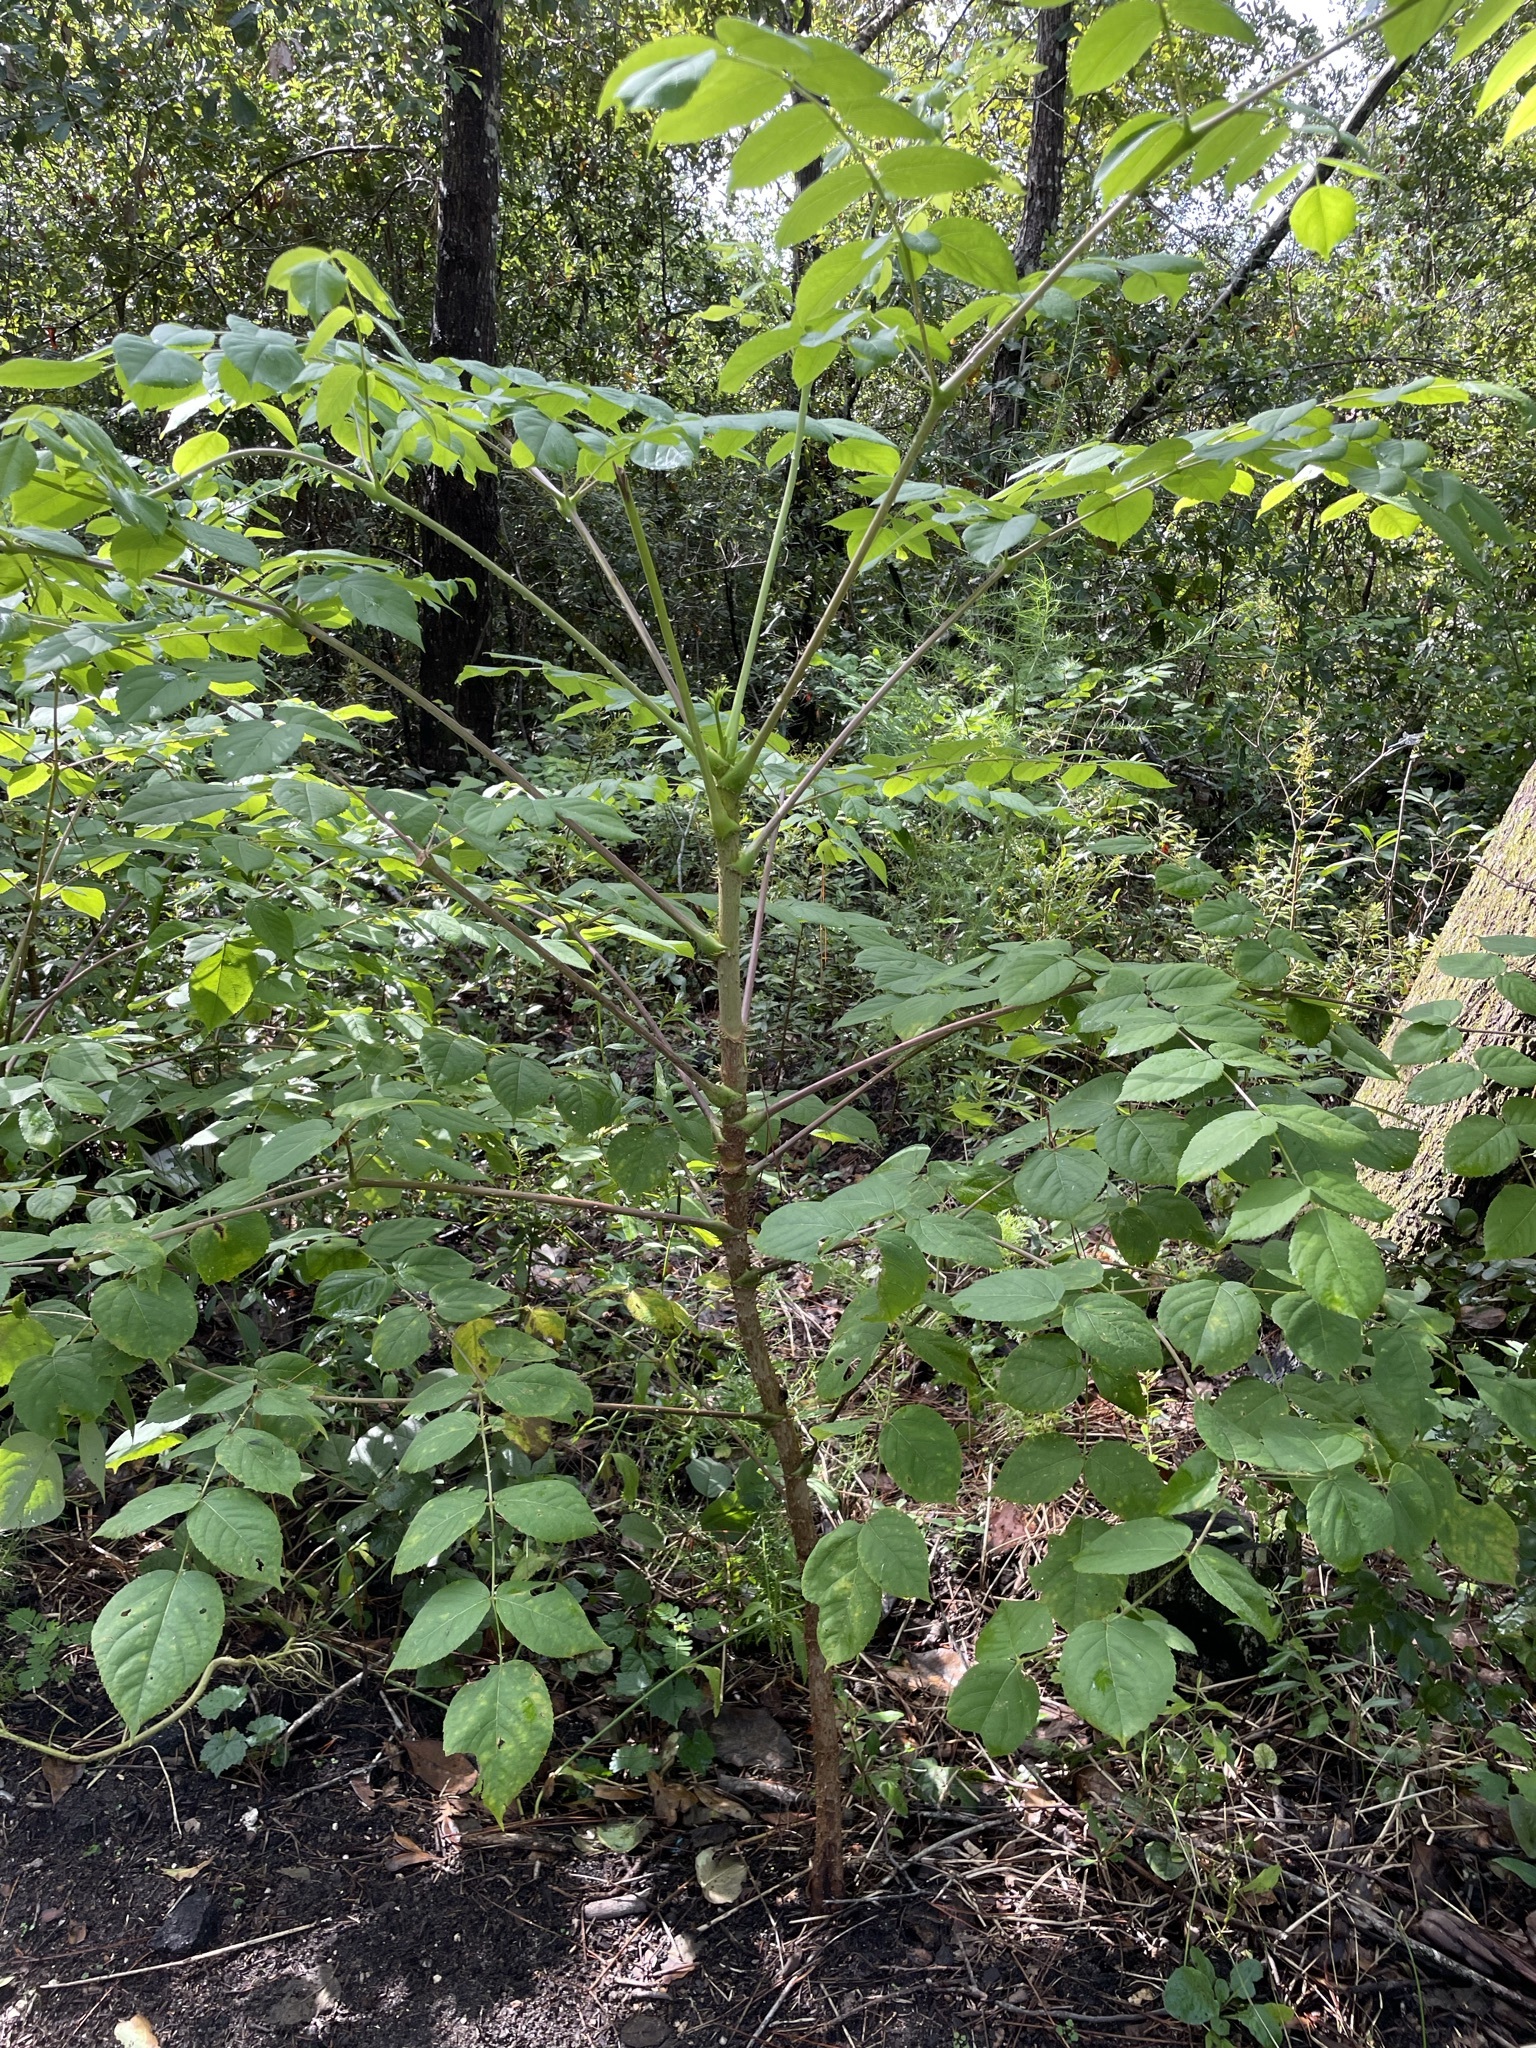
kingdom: Plantae
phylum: Tracheophyta
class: Magnoliopsida
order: Apiales
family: Araliaceae
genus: Aralia
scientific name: Aralia spinosa
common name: Hercules'-club
